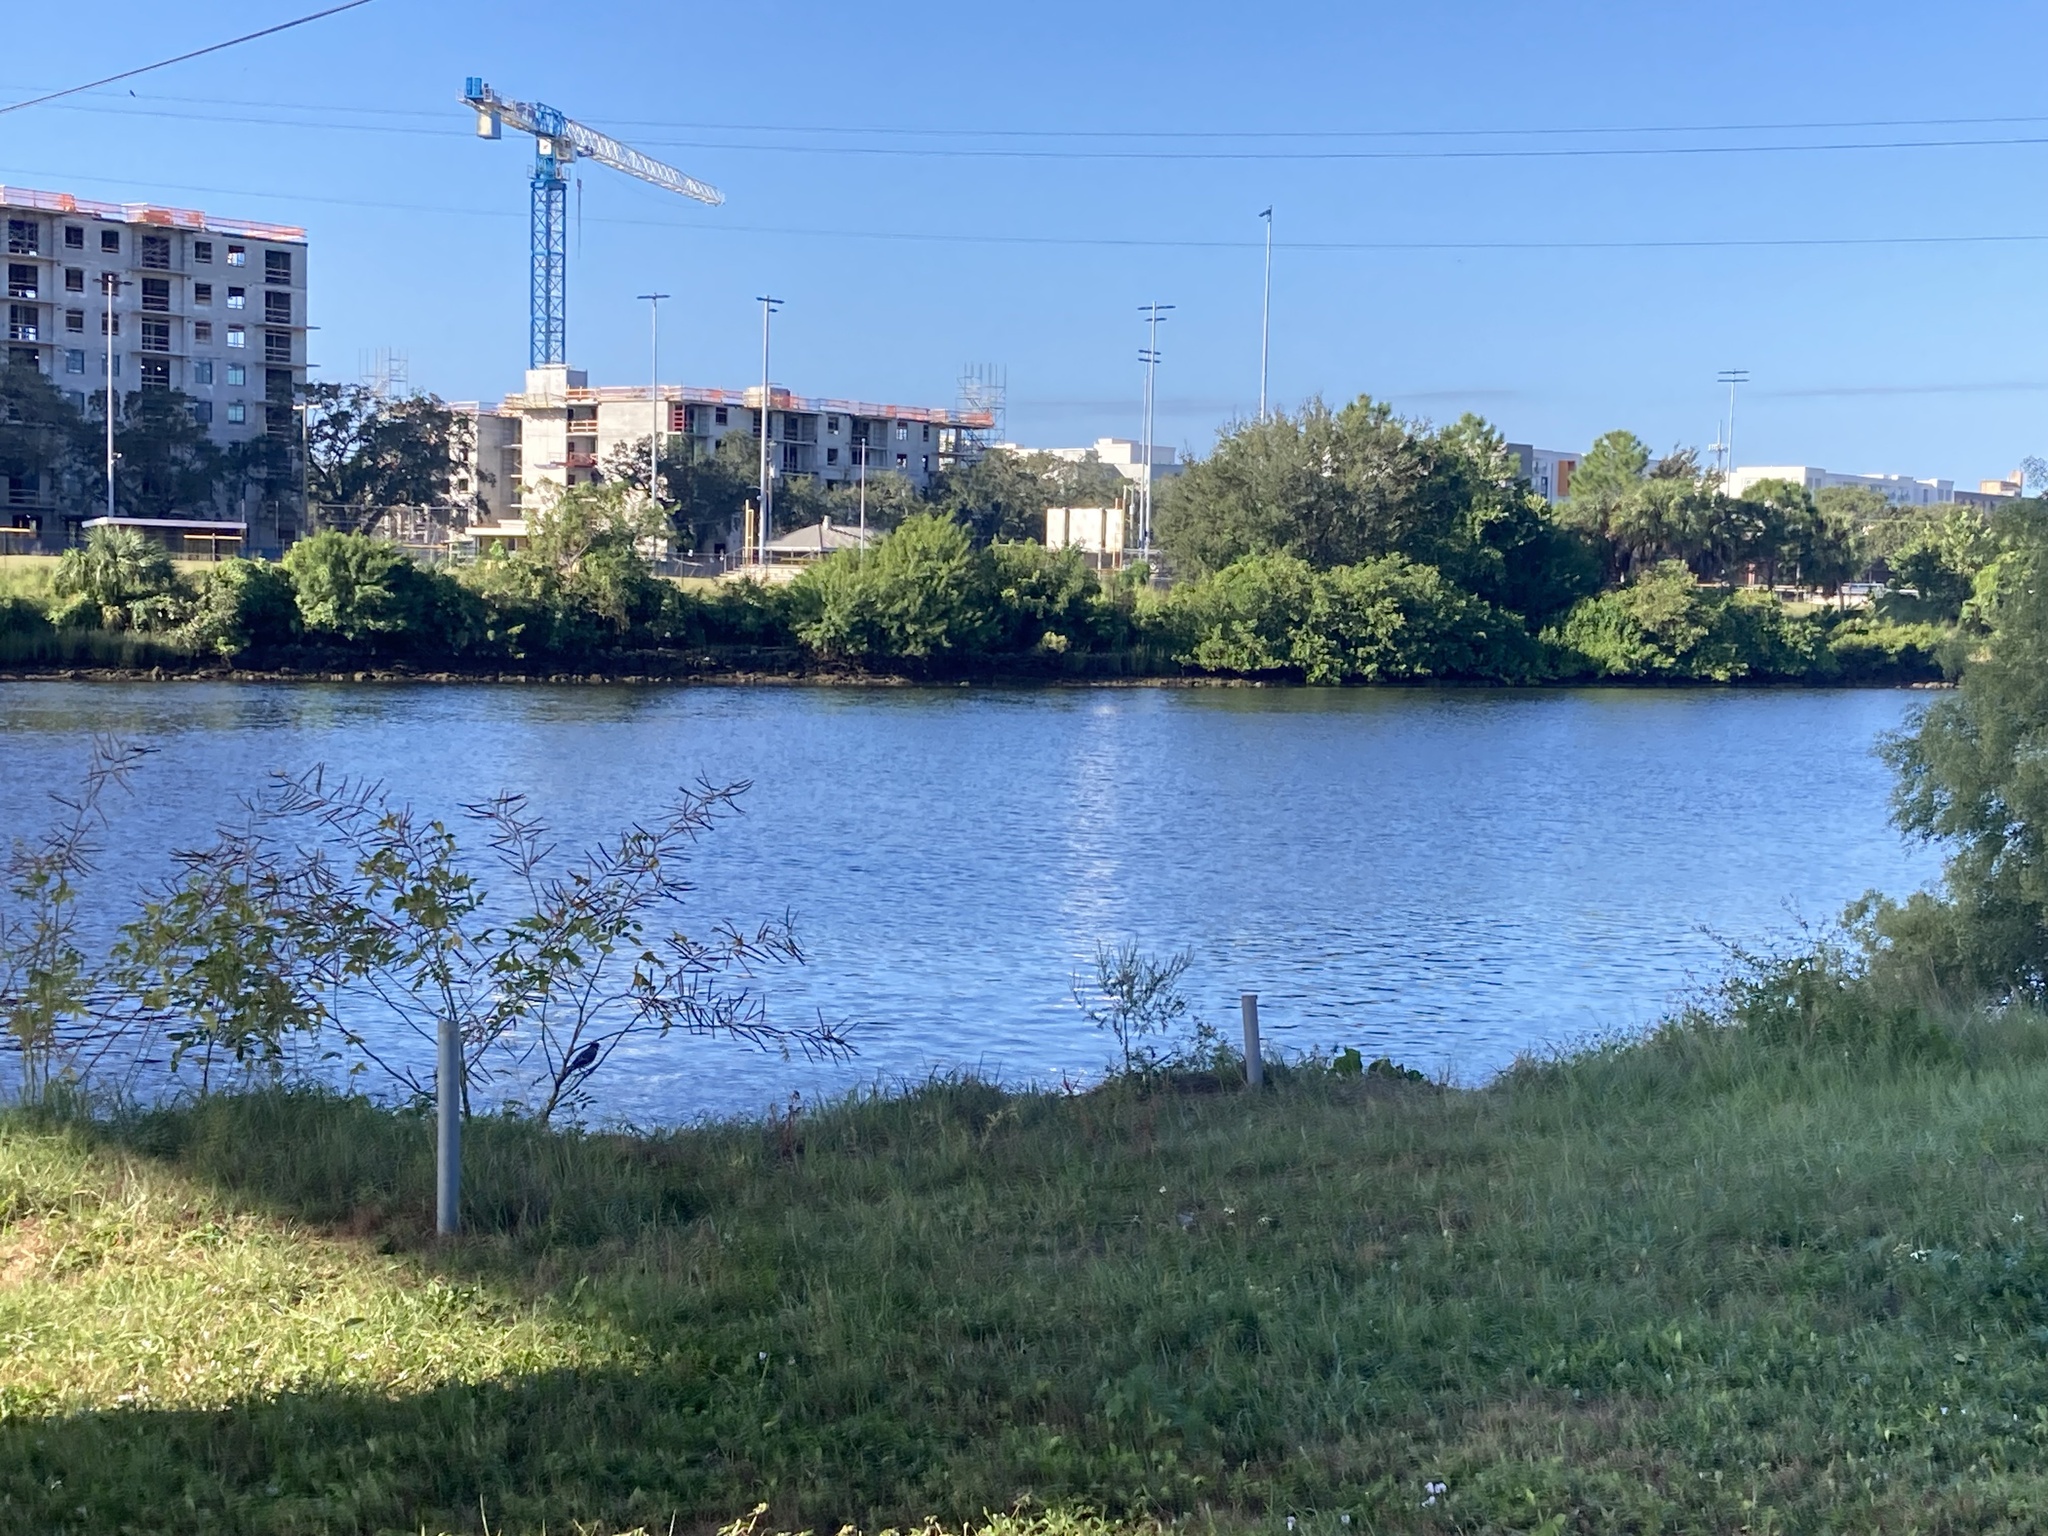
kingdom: Animalia
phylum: Chordata
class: Aves
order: Passeriformes
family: Corvidae
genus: Cyanocitta
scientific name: Cyanocitta cristata
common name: Blue jay
